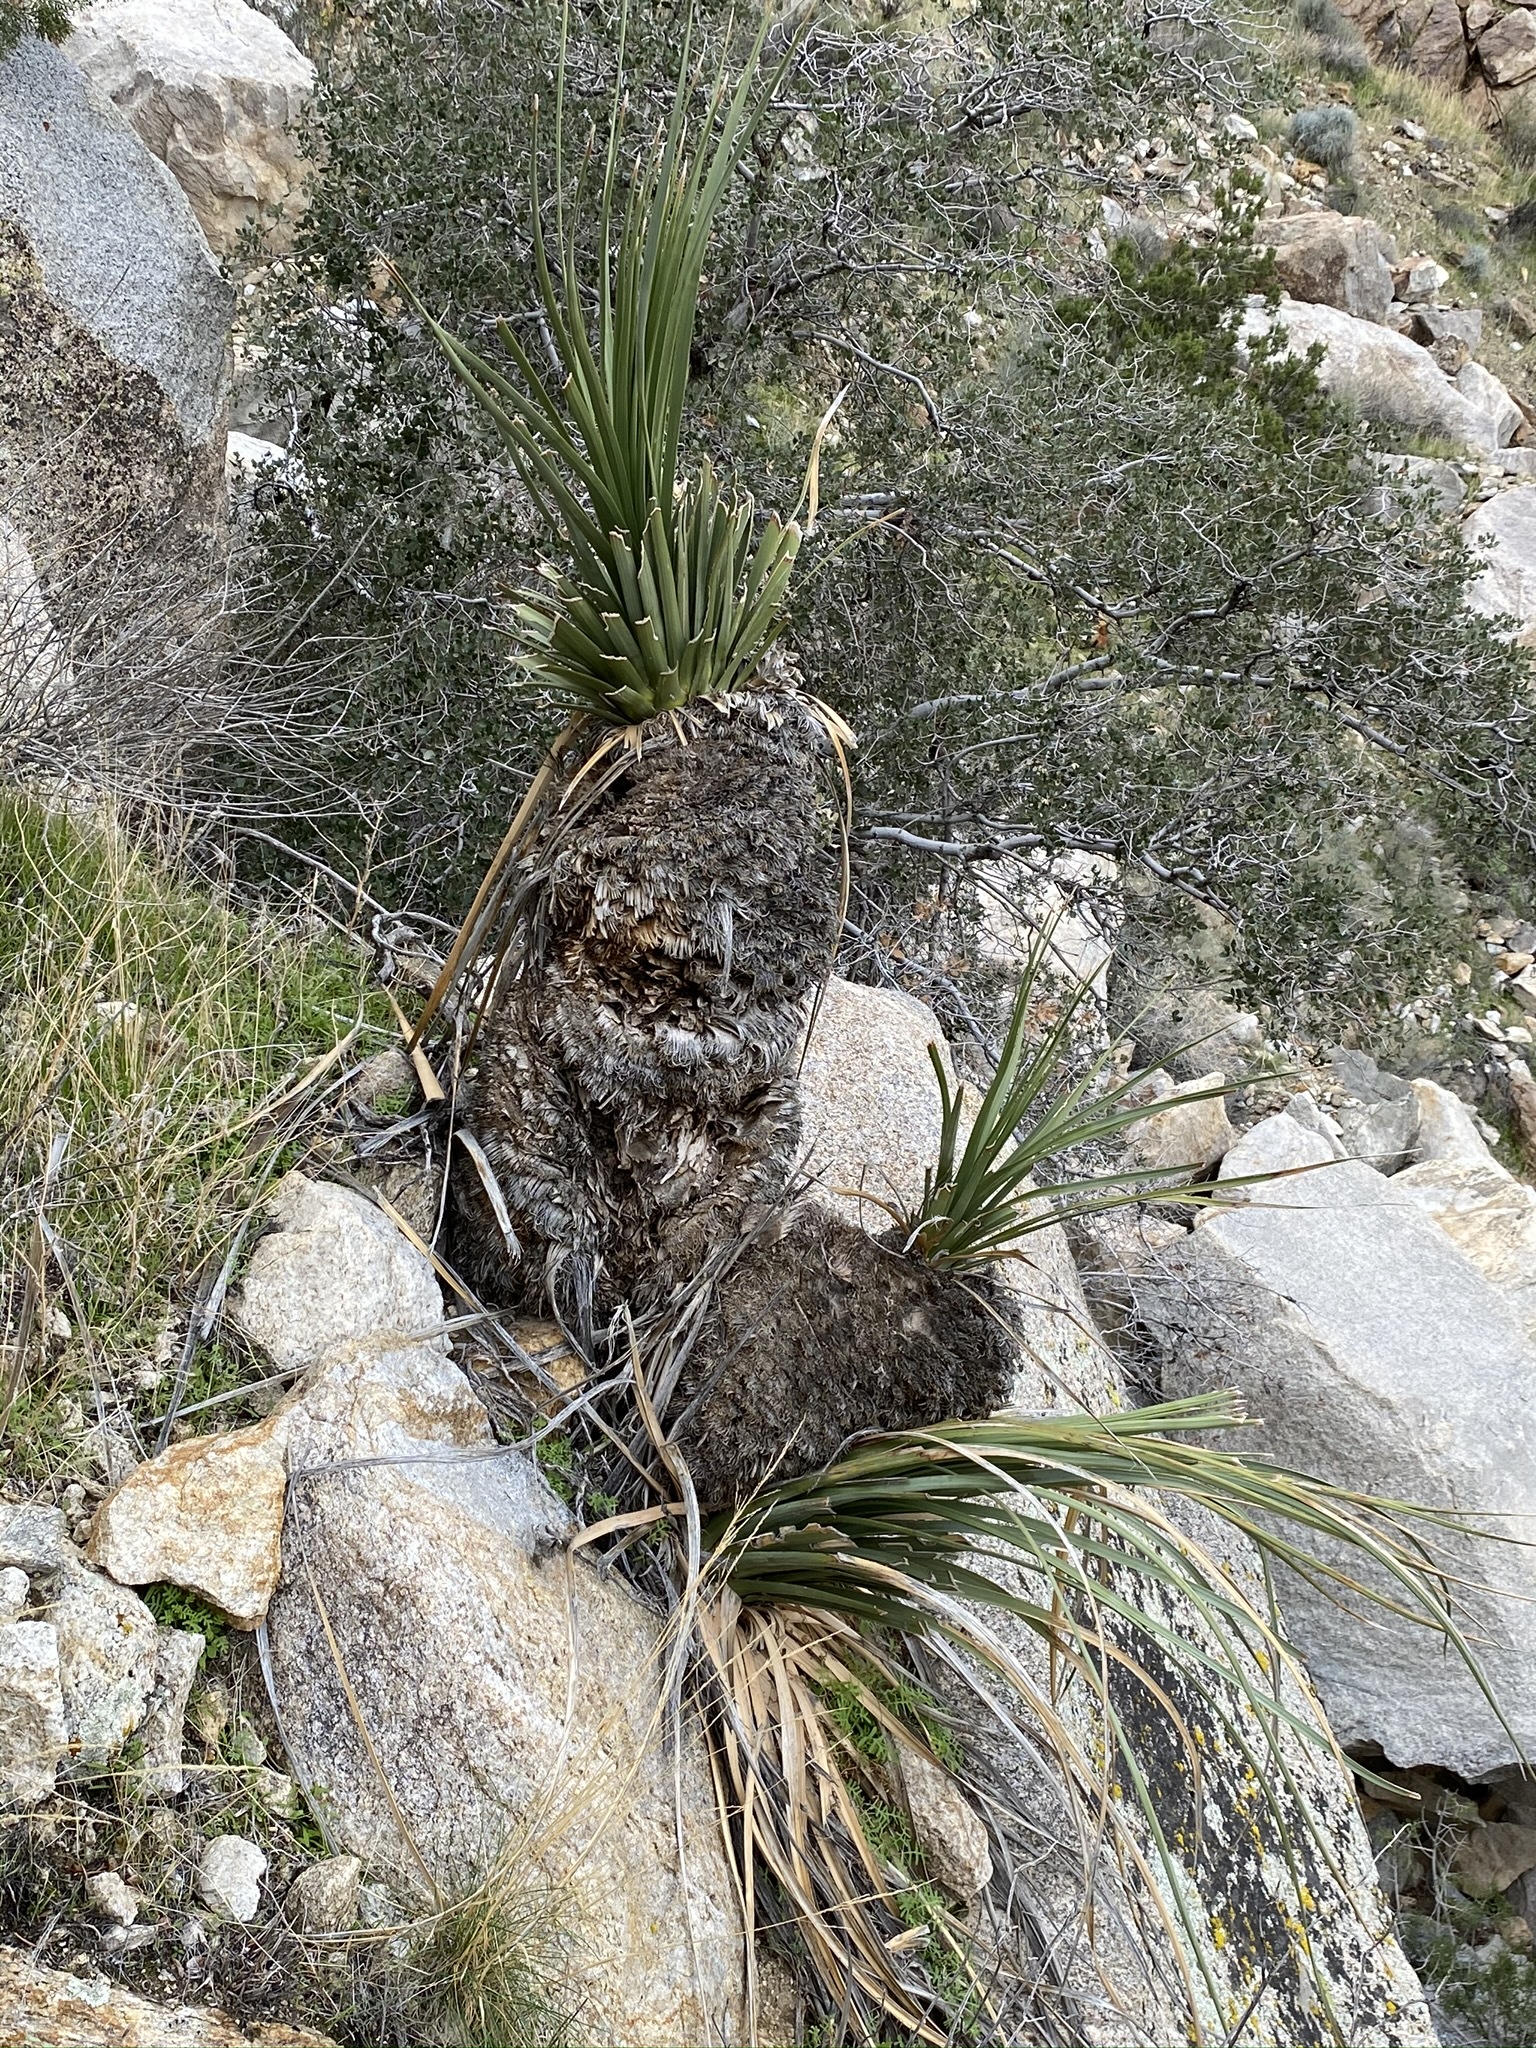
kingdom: Plantae
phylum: Tracheophyta
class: Liliopsida
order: Asparagales
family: Asparagaceae
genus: Nolina
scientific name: Nolina parryi
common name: Parry nolina
